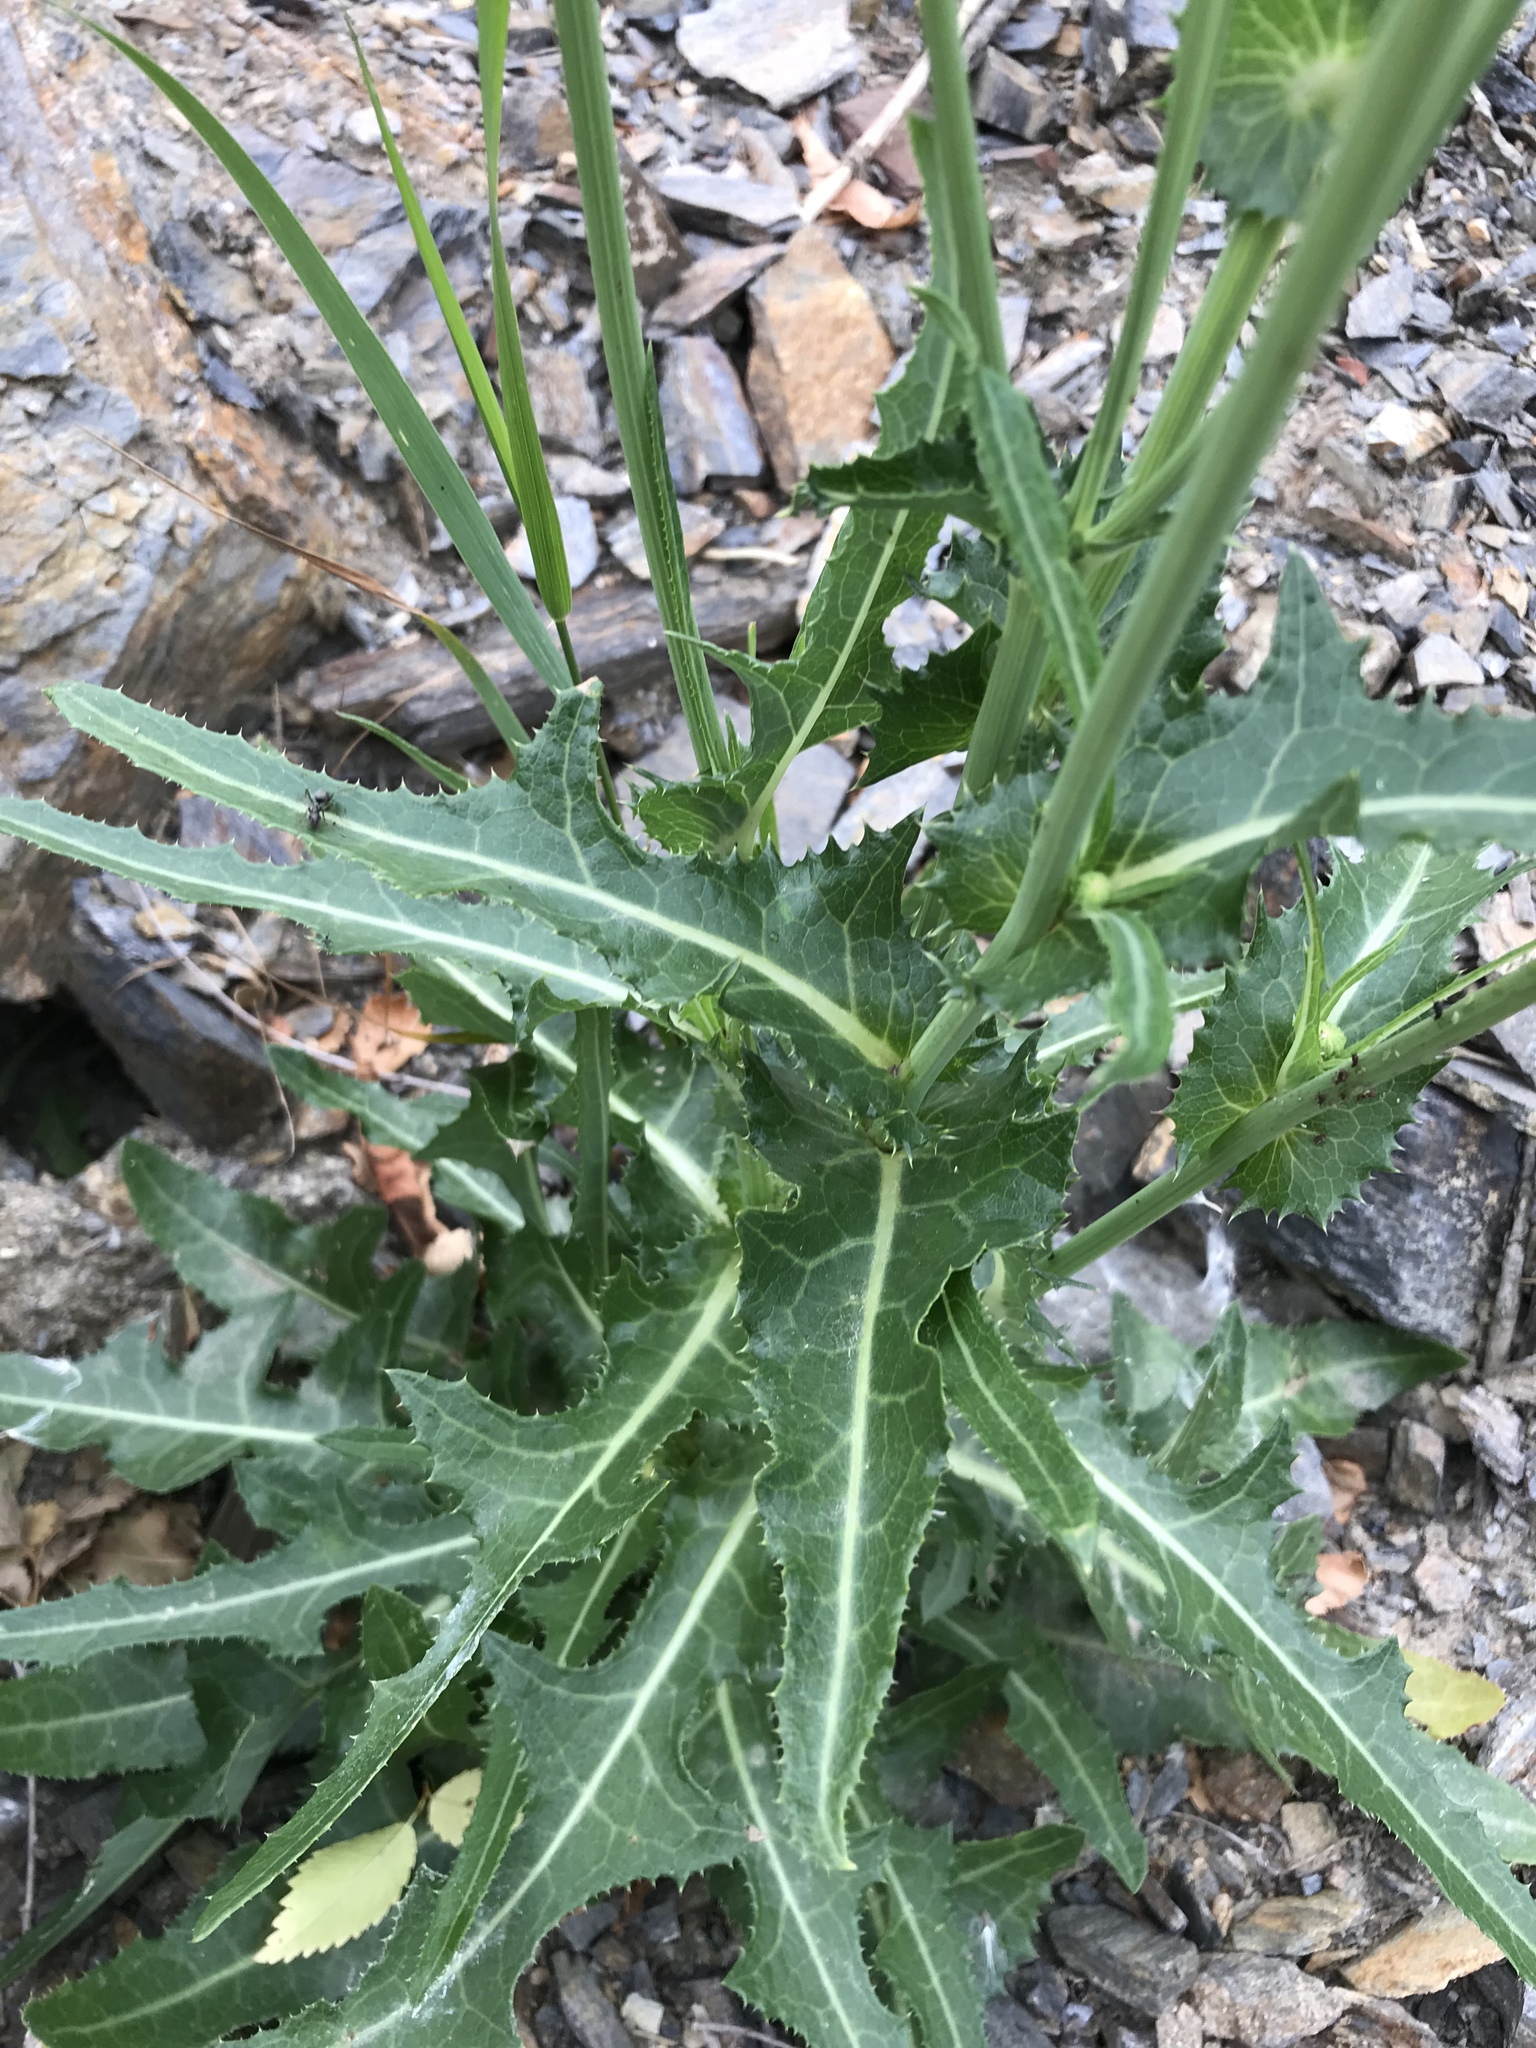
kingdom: Plantae
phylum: Tracheophyta
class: Magnoliopsida
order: Asterales
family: Asteraceae
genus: Sonchus
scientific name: Sonchus arvensis
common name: Perennial sow-thistle
